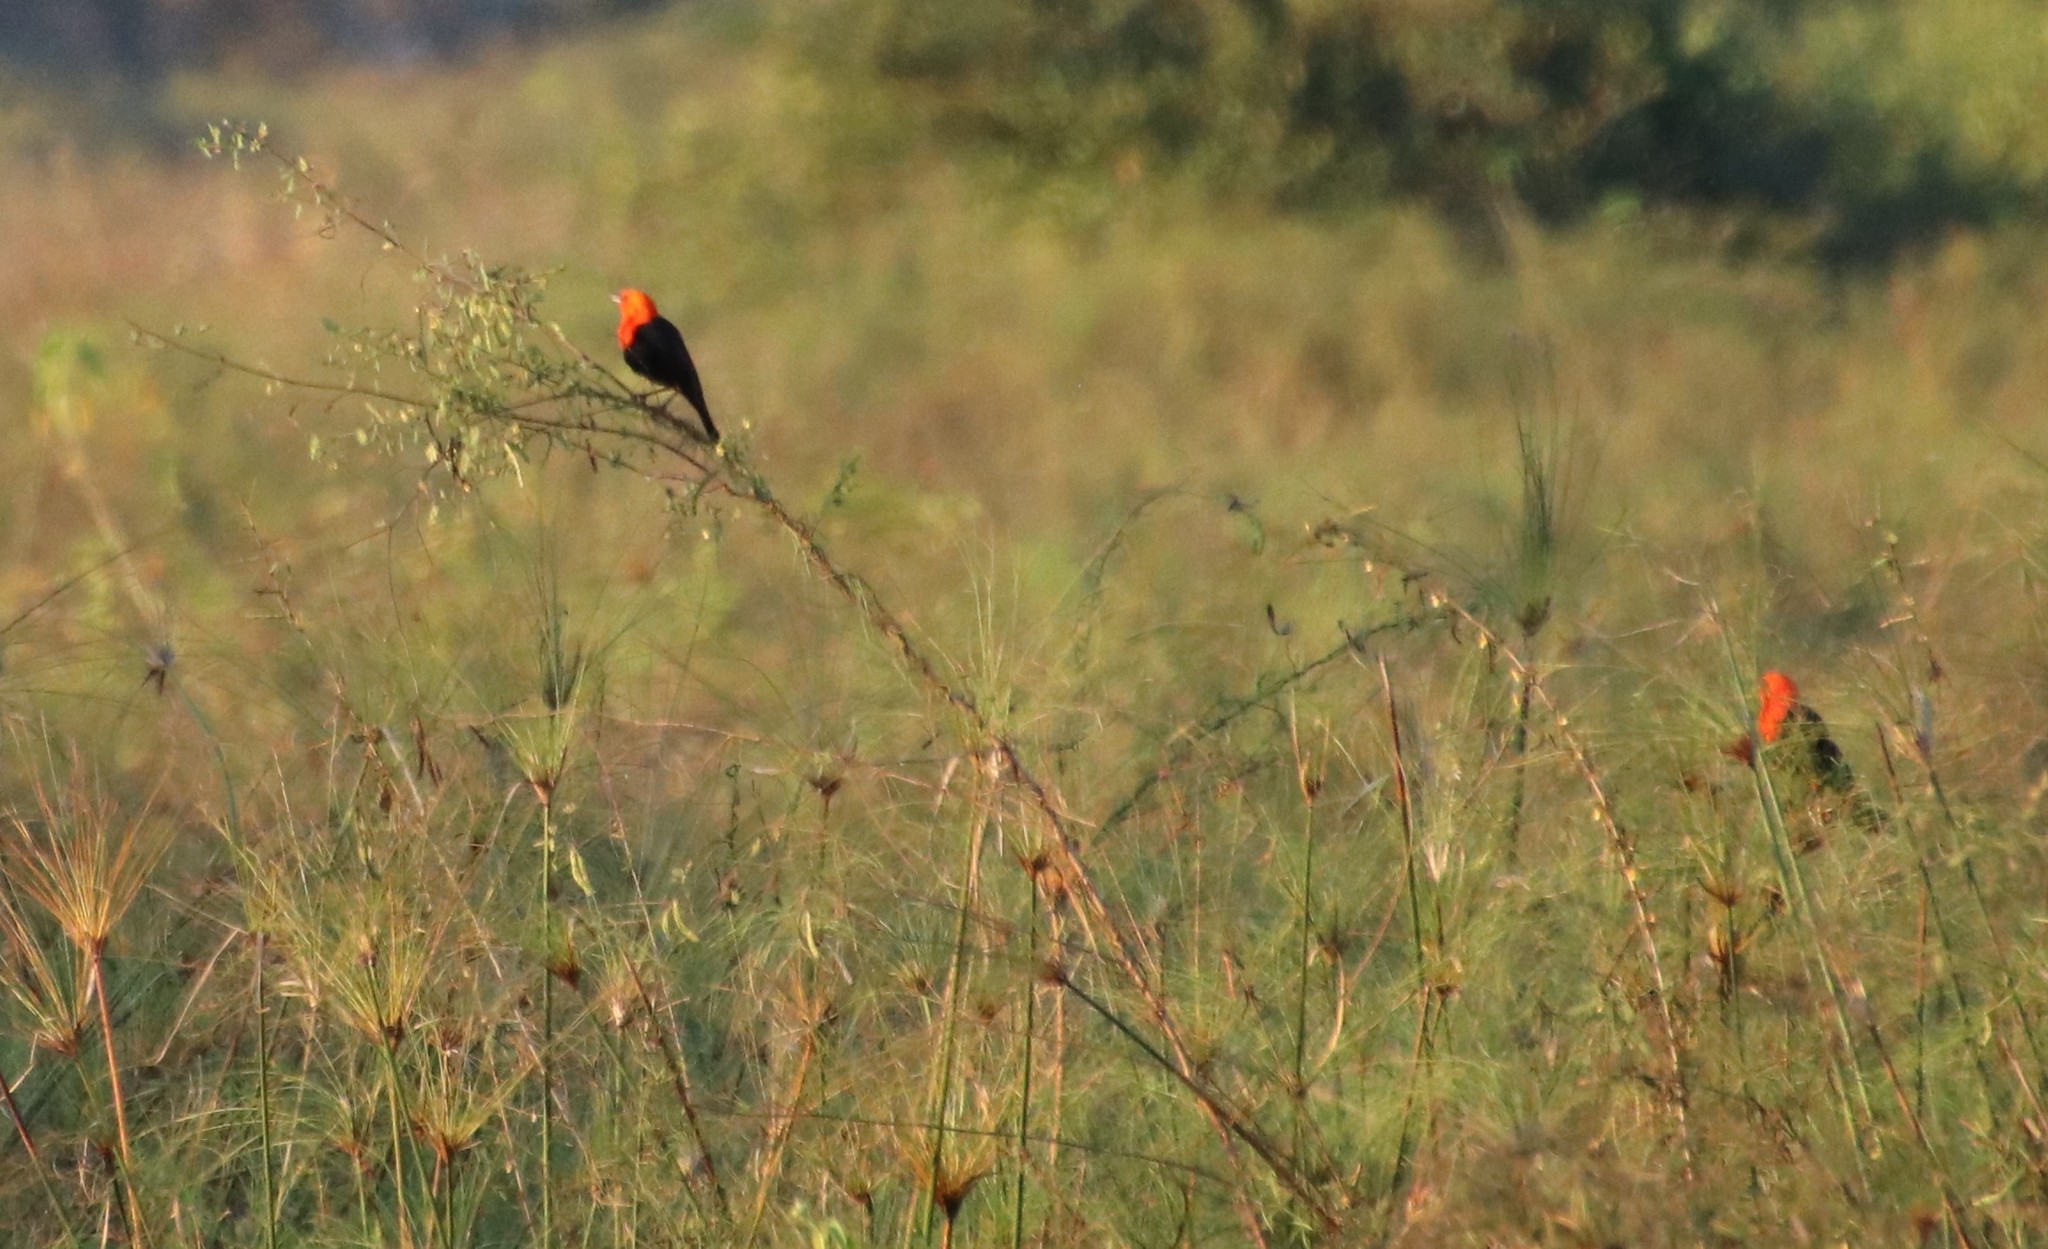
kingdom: Animalia
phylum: Chordata
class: Aves
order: Passeriformes
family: Icteridae
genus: Amblyramphus
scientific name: Amblyramphus holosericeus
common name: Scarlet-headed blackbird
